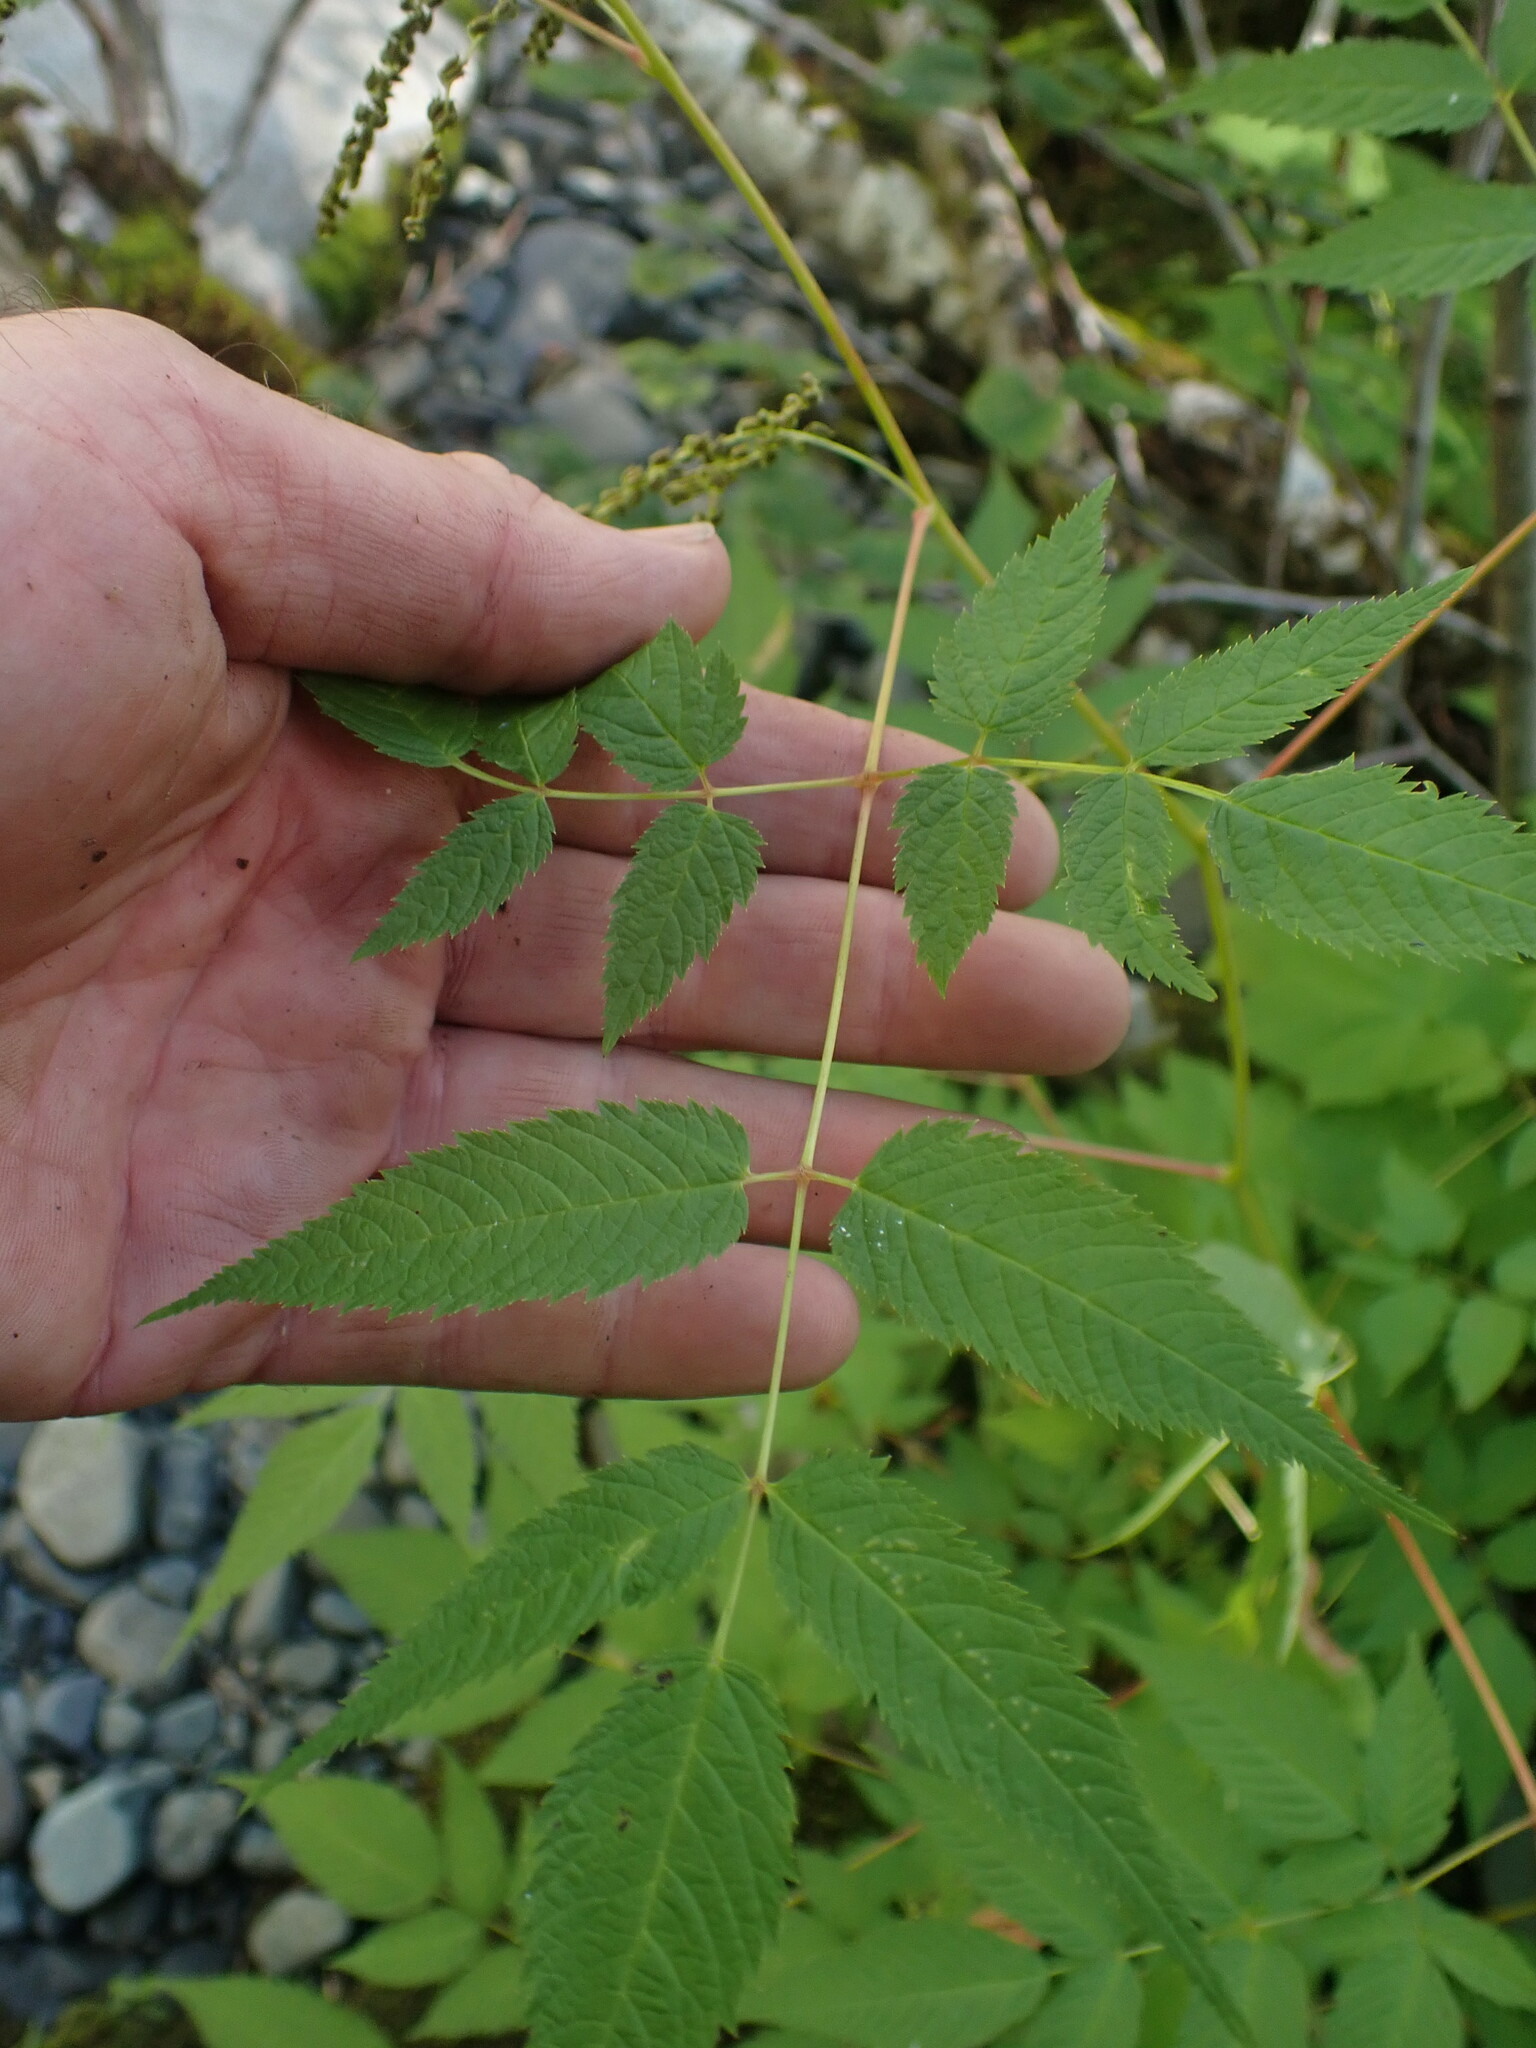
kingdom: Plantae
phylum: Tracheophyta
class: Magnoliopsida
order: Rosales
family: Rosaceae
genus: Aruncus
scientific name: Aruncus dioicus
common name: Buck's-beard
